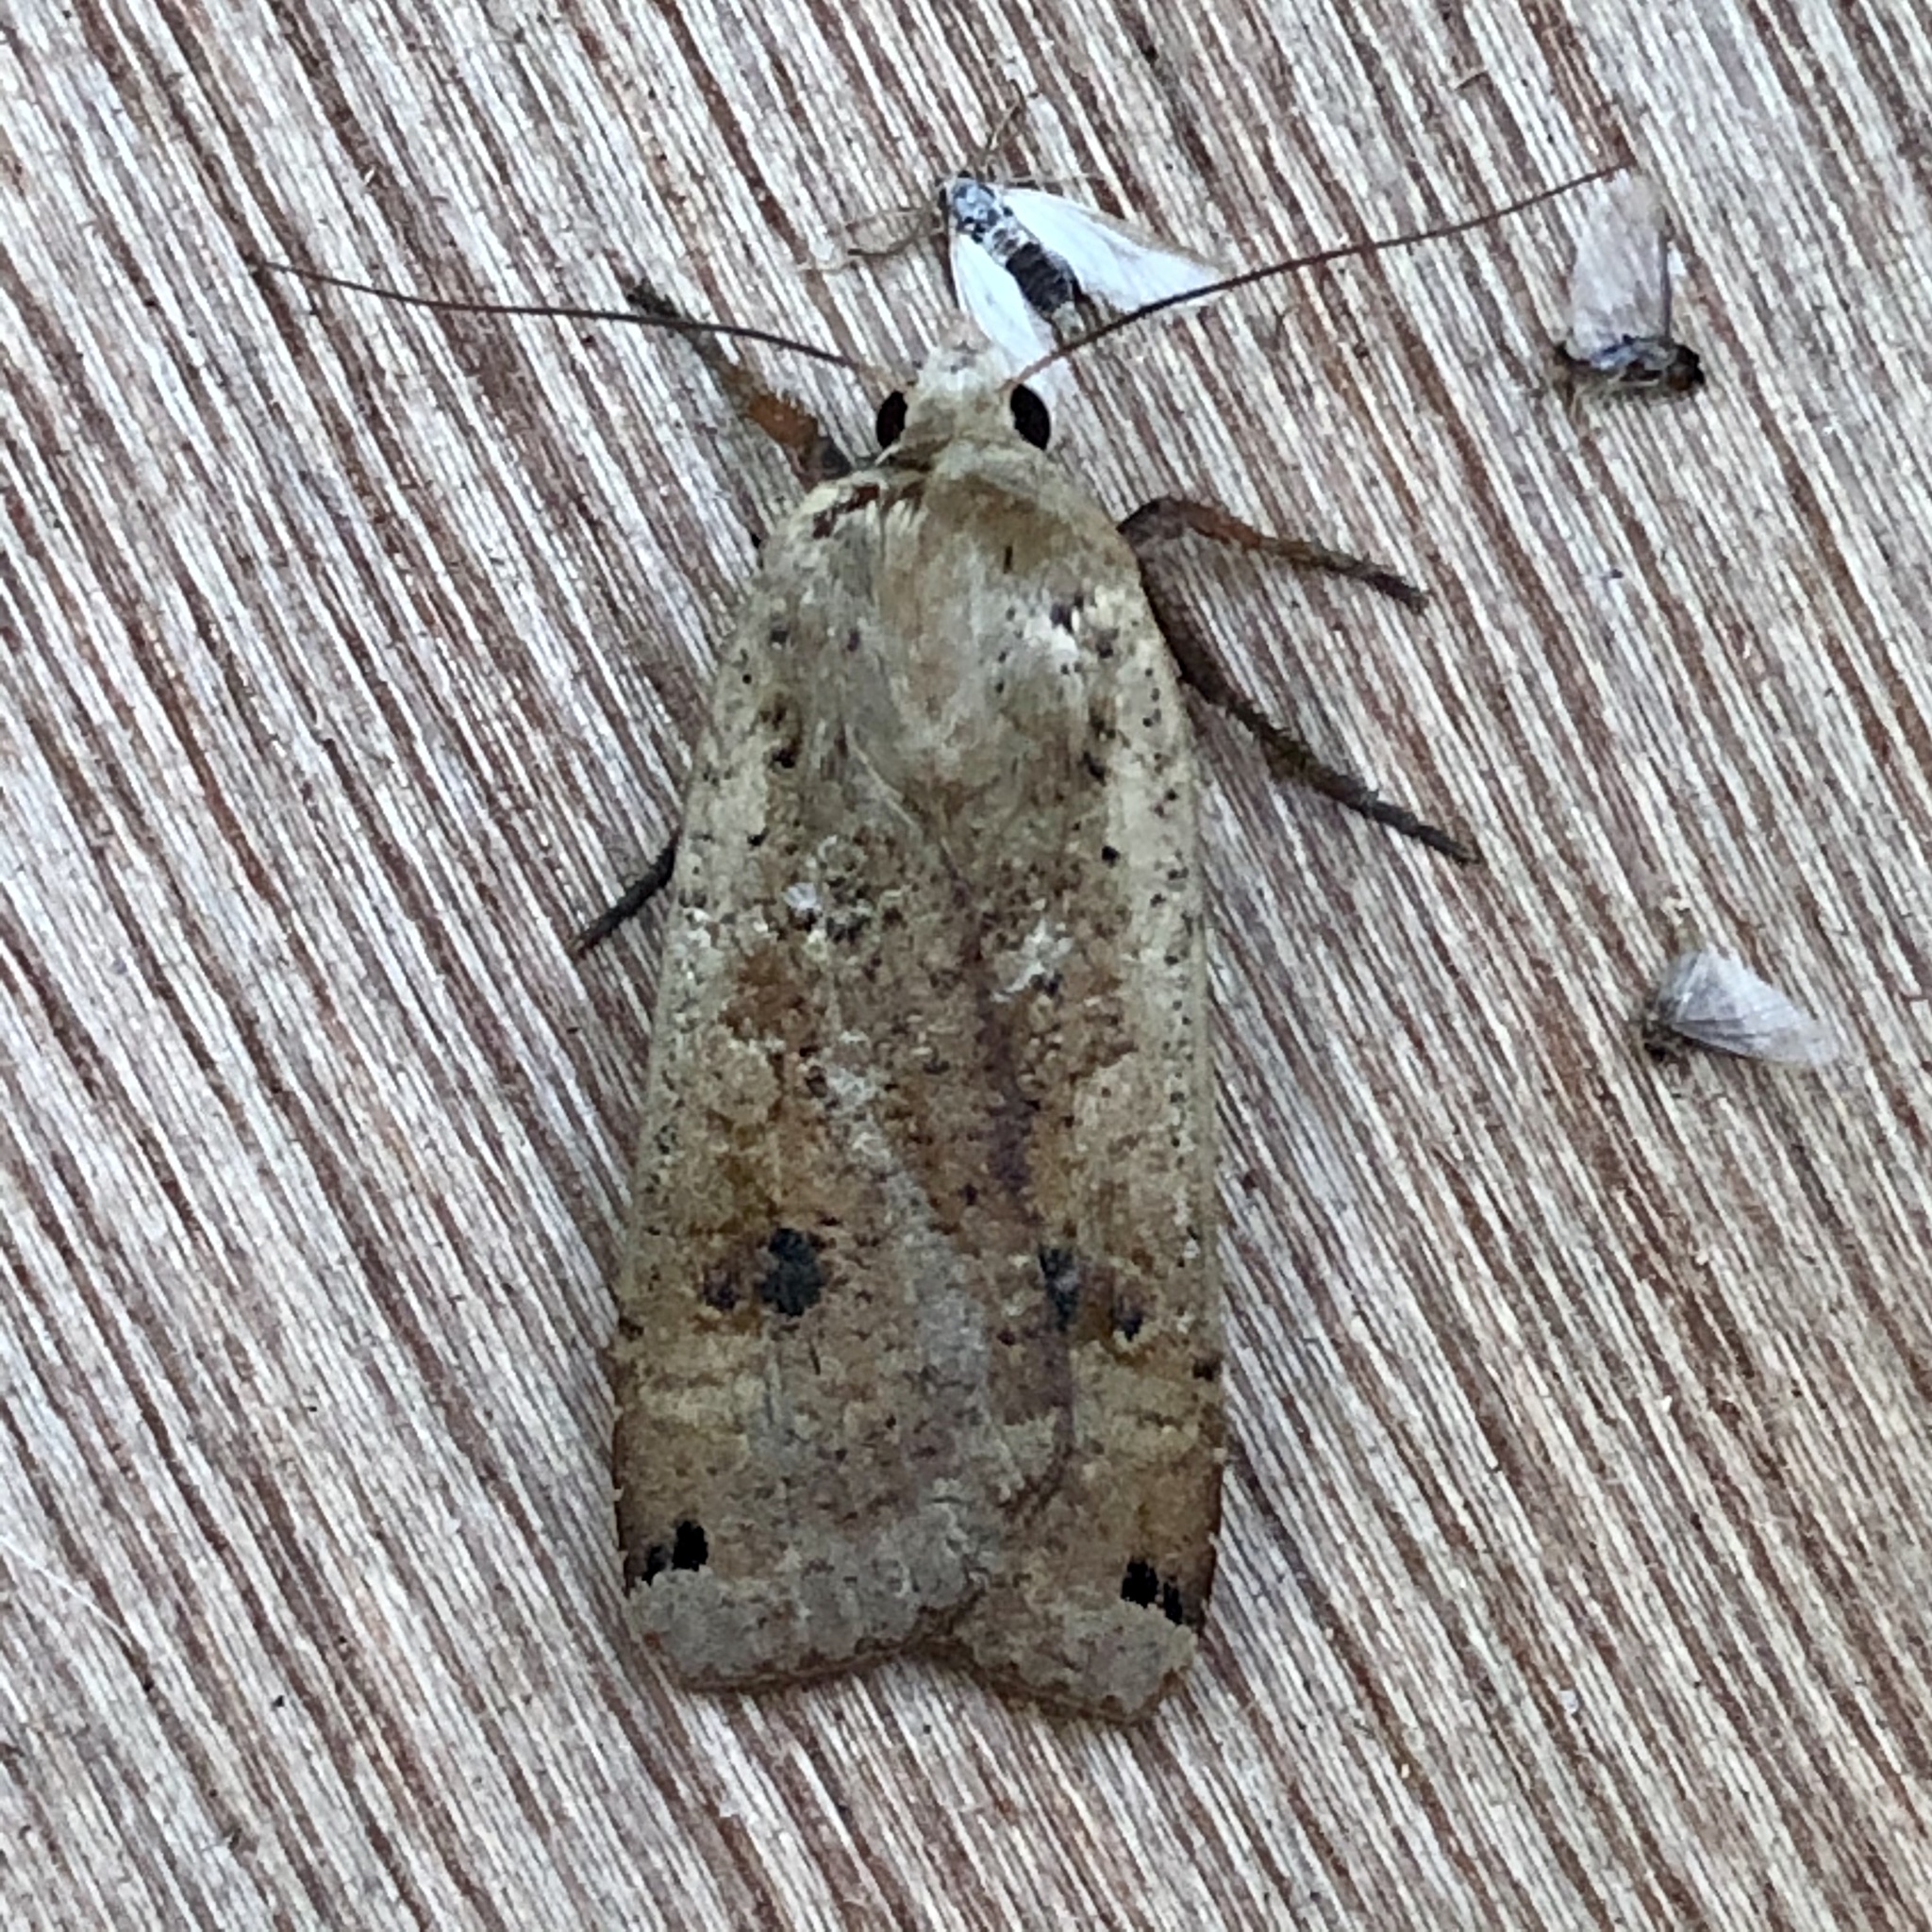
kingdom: Animalia
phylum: Arthropoda
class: Insecta
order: Lepidoptera
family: Noctuidae
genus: Noctua
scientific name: Noctua pronuba
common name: Large yellow underwing
